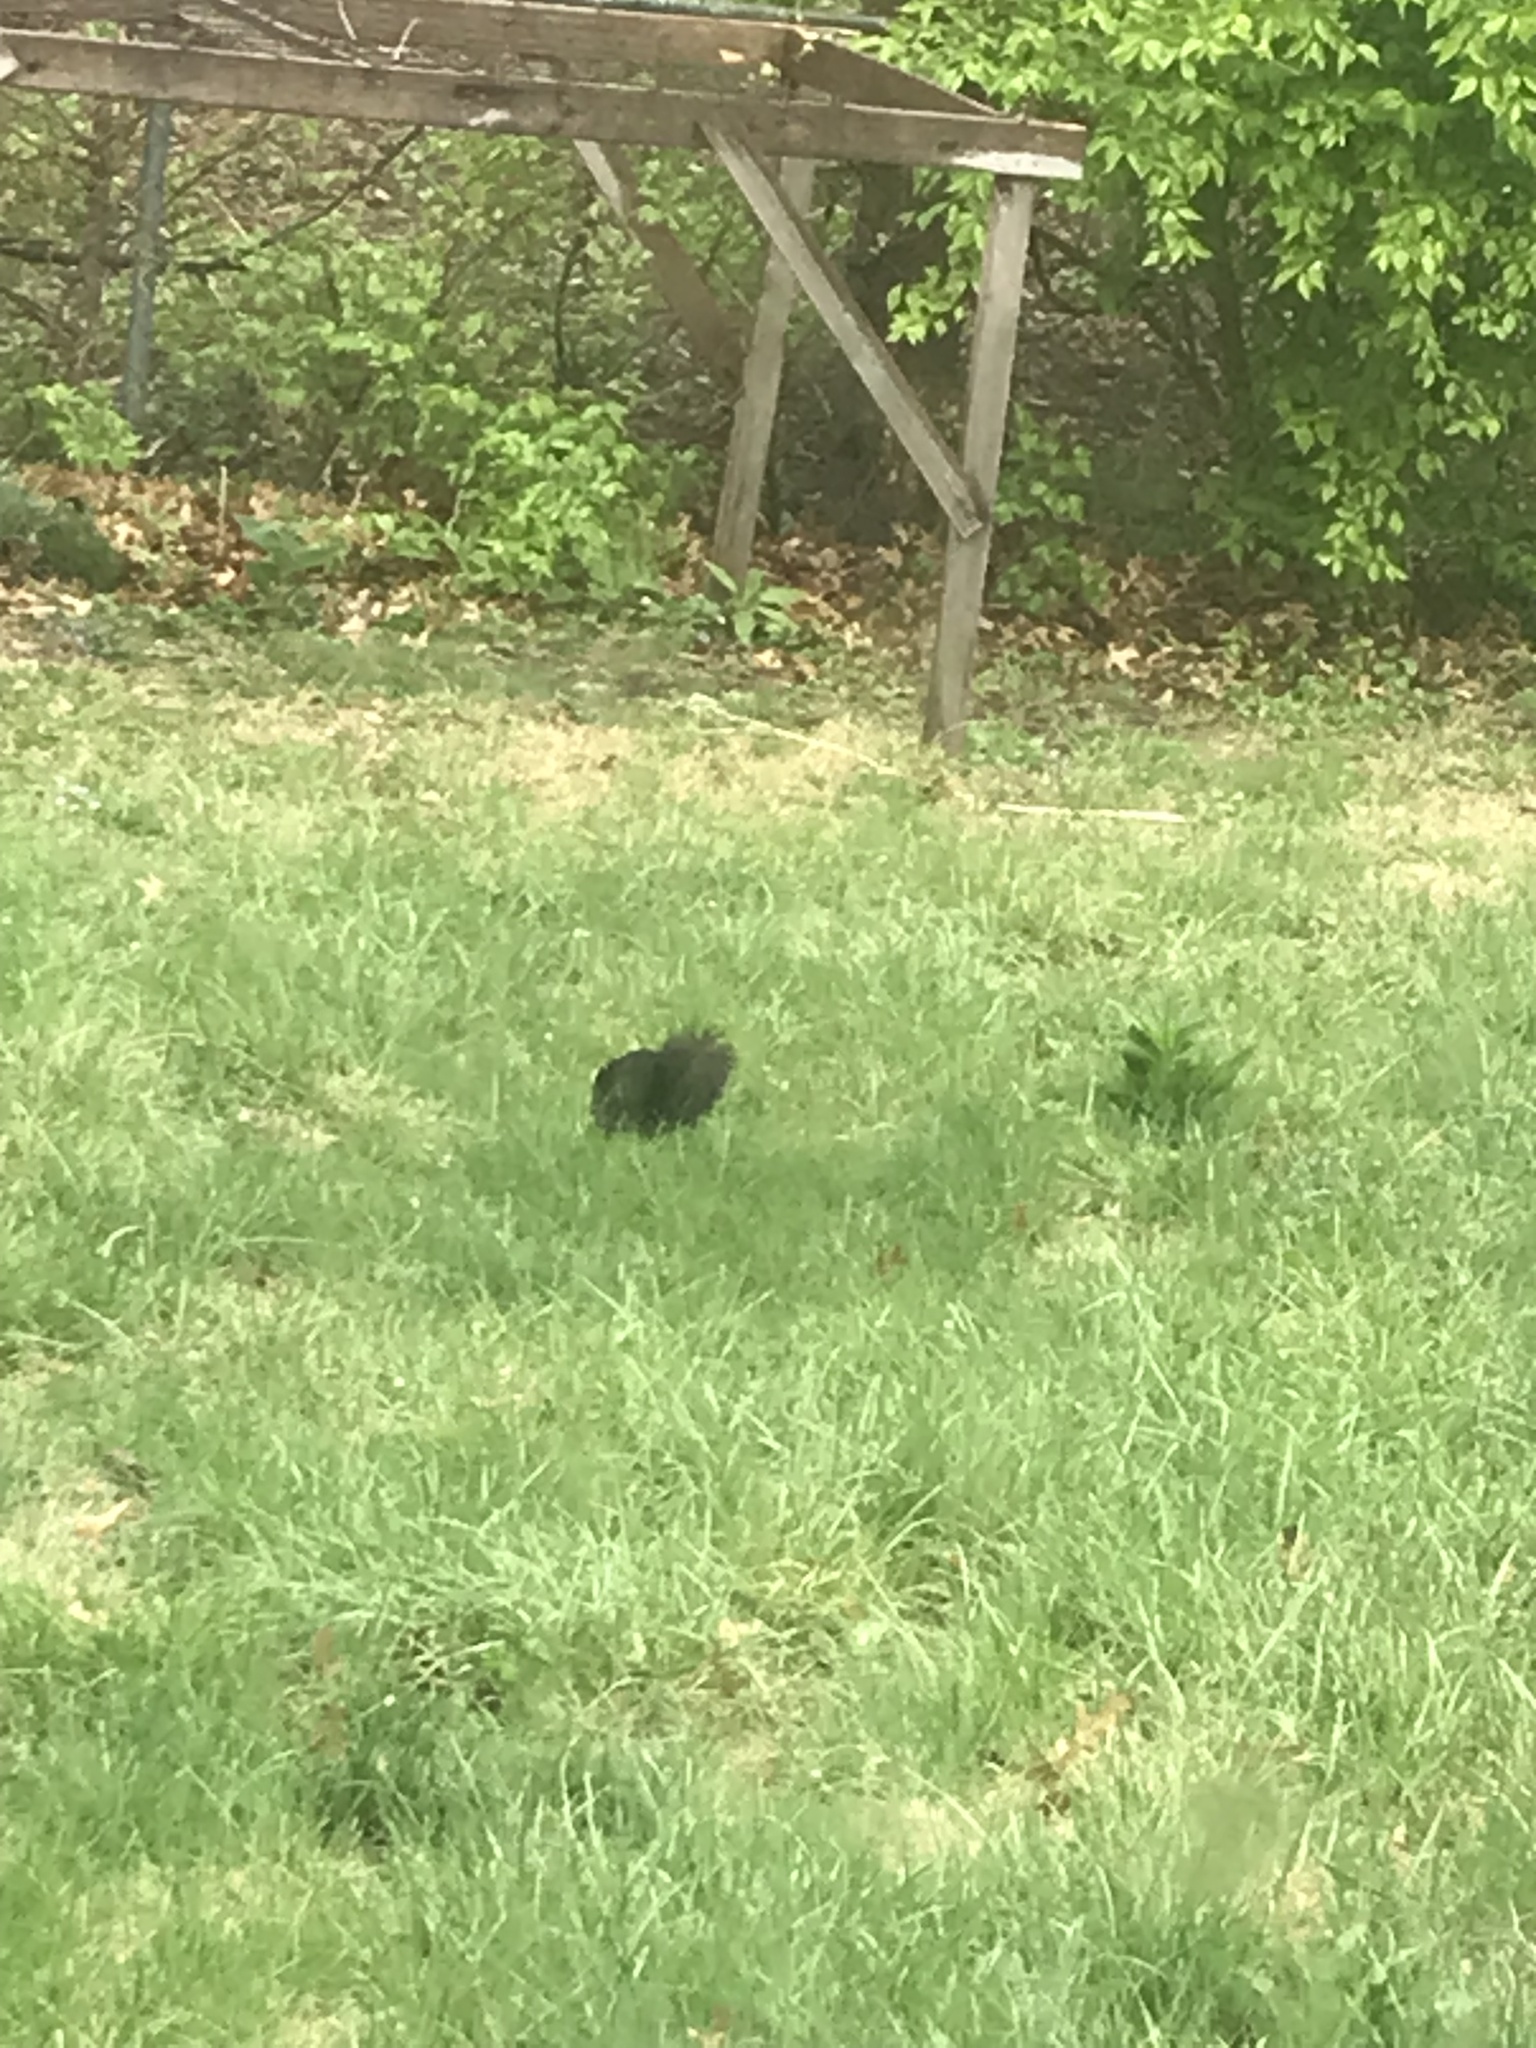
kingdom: Animalia
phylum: Chordata
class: Mammalia
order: Rodentia
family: Sciuridae
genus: Sciurus
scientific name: Sciurus niger
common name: Fox squirrel
